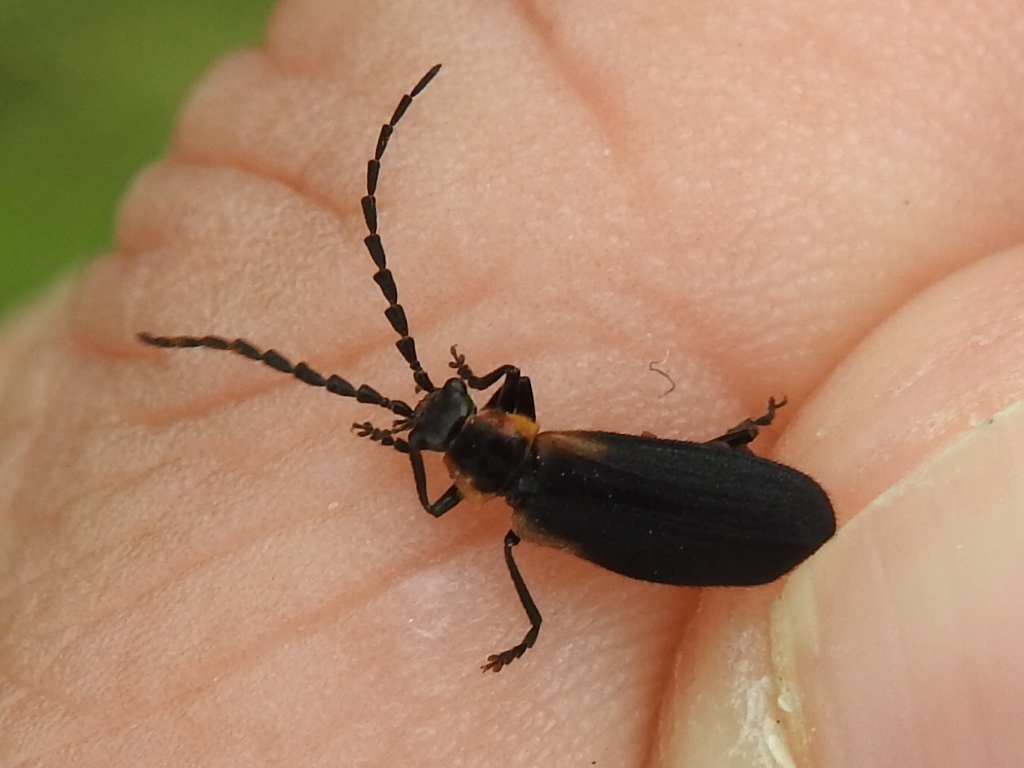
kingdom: Animalia
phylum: Arthropoda
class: Insecta
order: Coleoptera
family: Cantharidae
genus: Polemius
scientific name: Polemius laticornis
